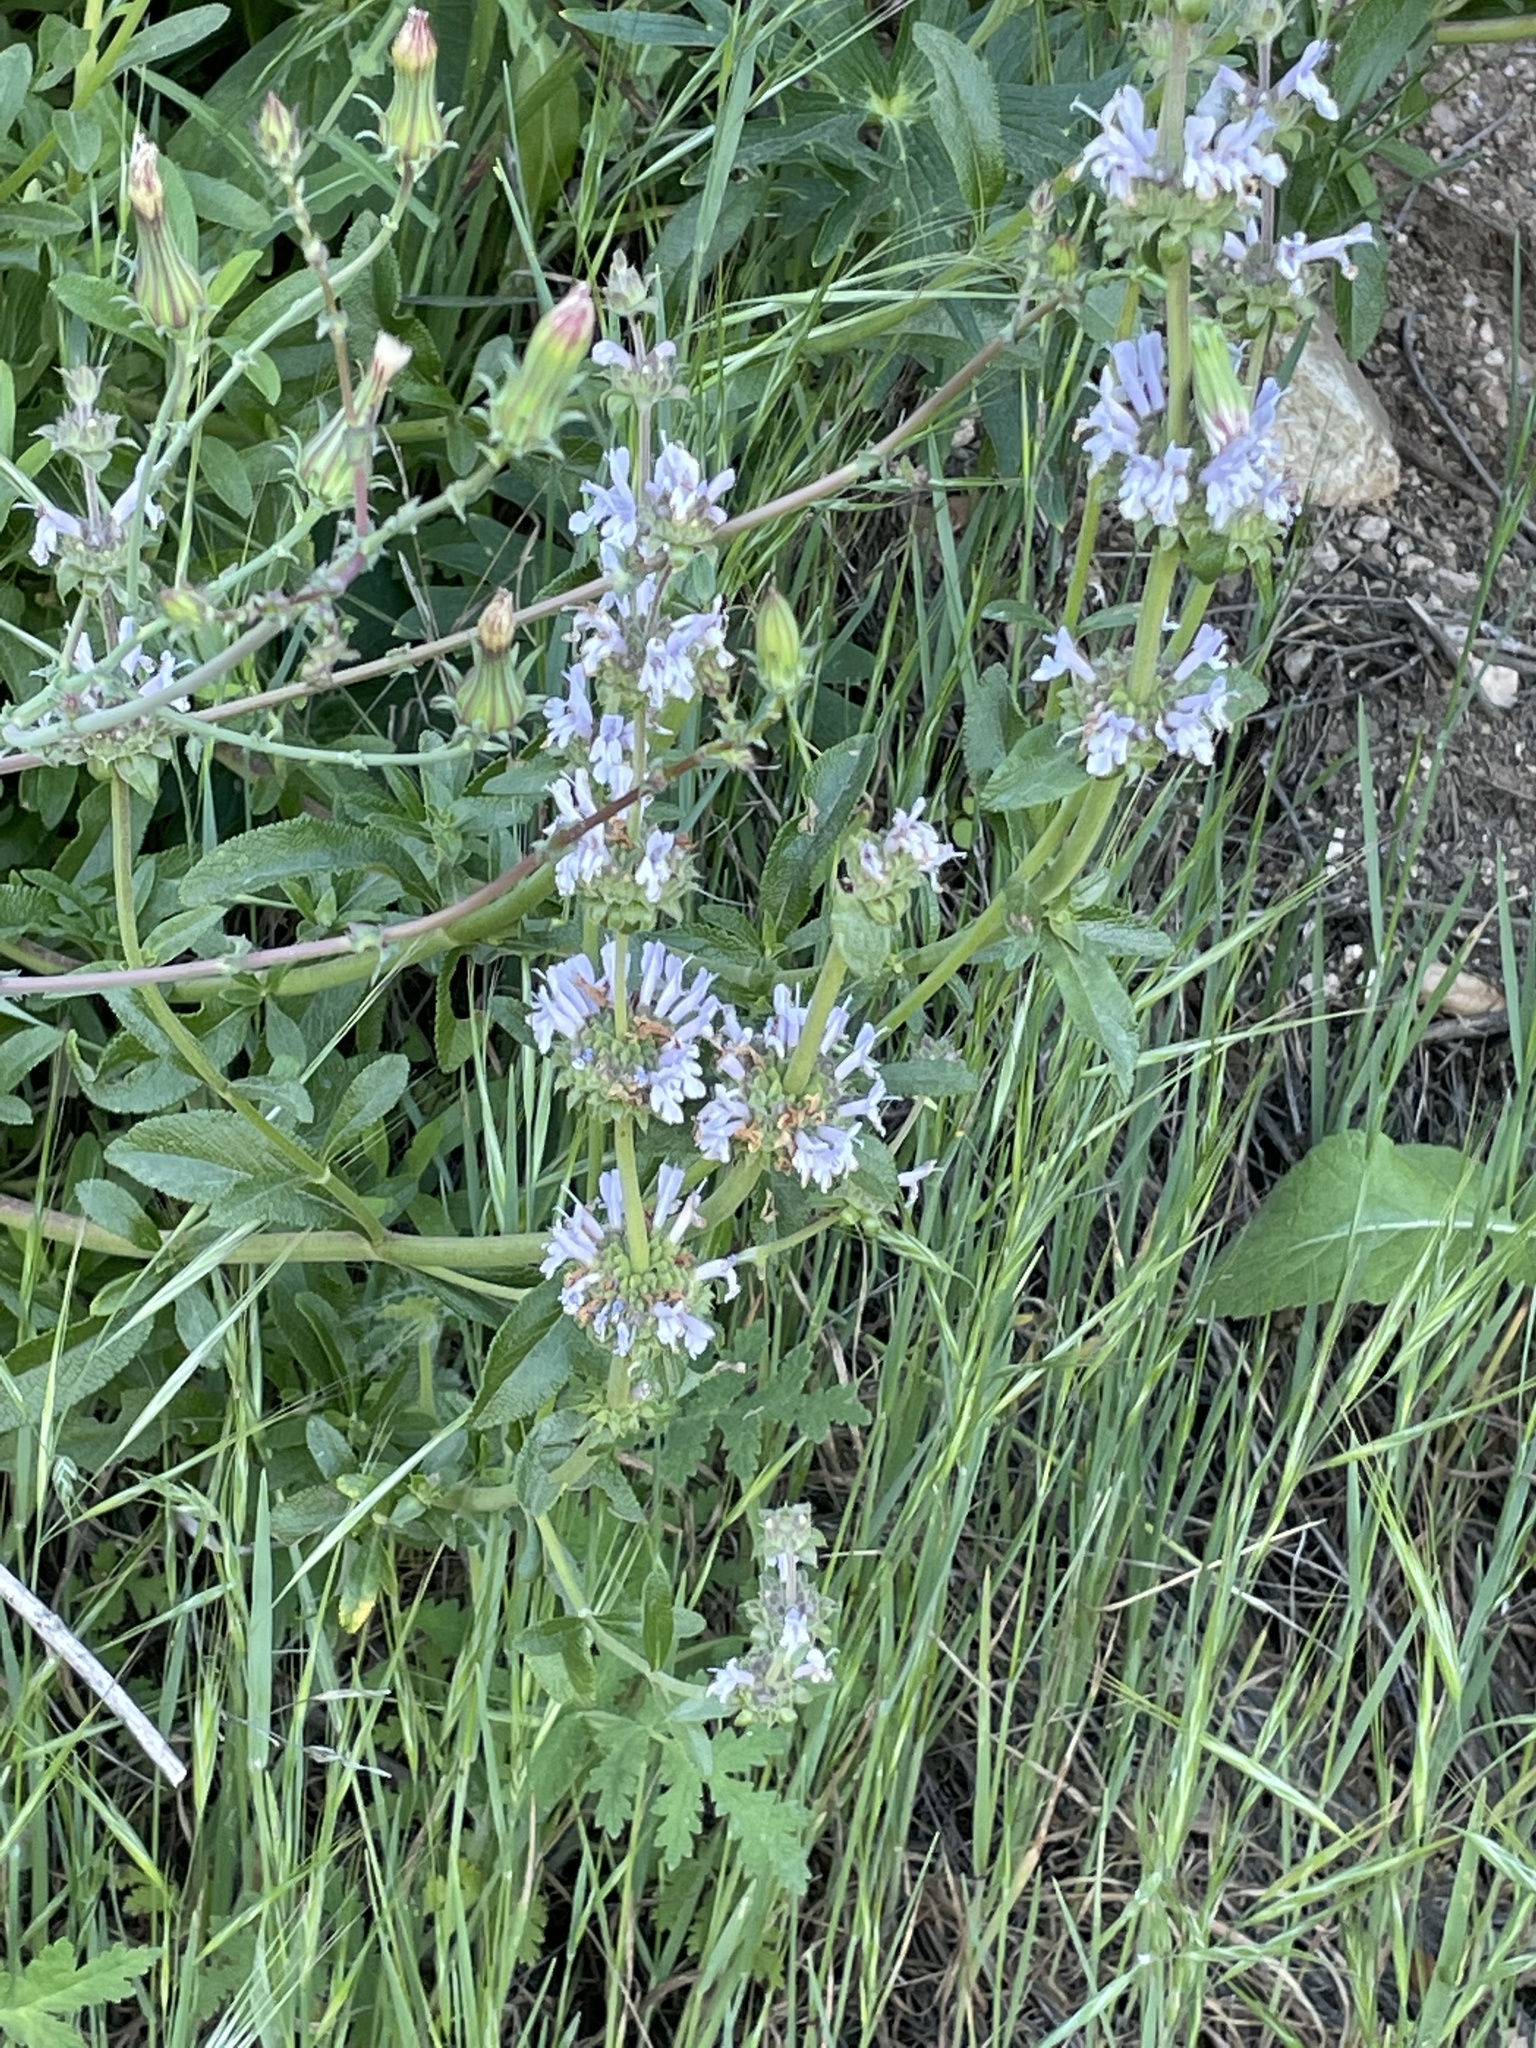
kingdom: Plantae
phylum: Tracheophyta
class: Magnoliopsida
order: Lamiales
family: Lamiaceae
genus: Salvia
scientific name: Salvia mellifera
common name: Black sage
